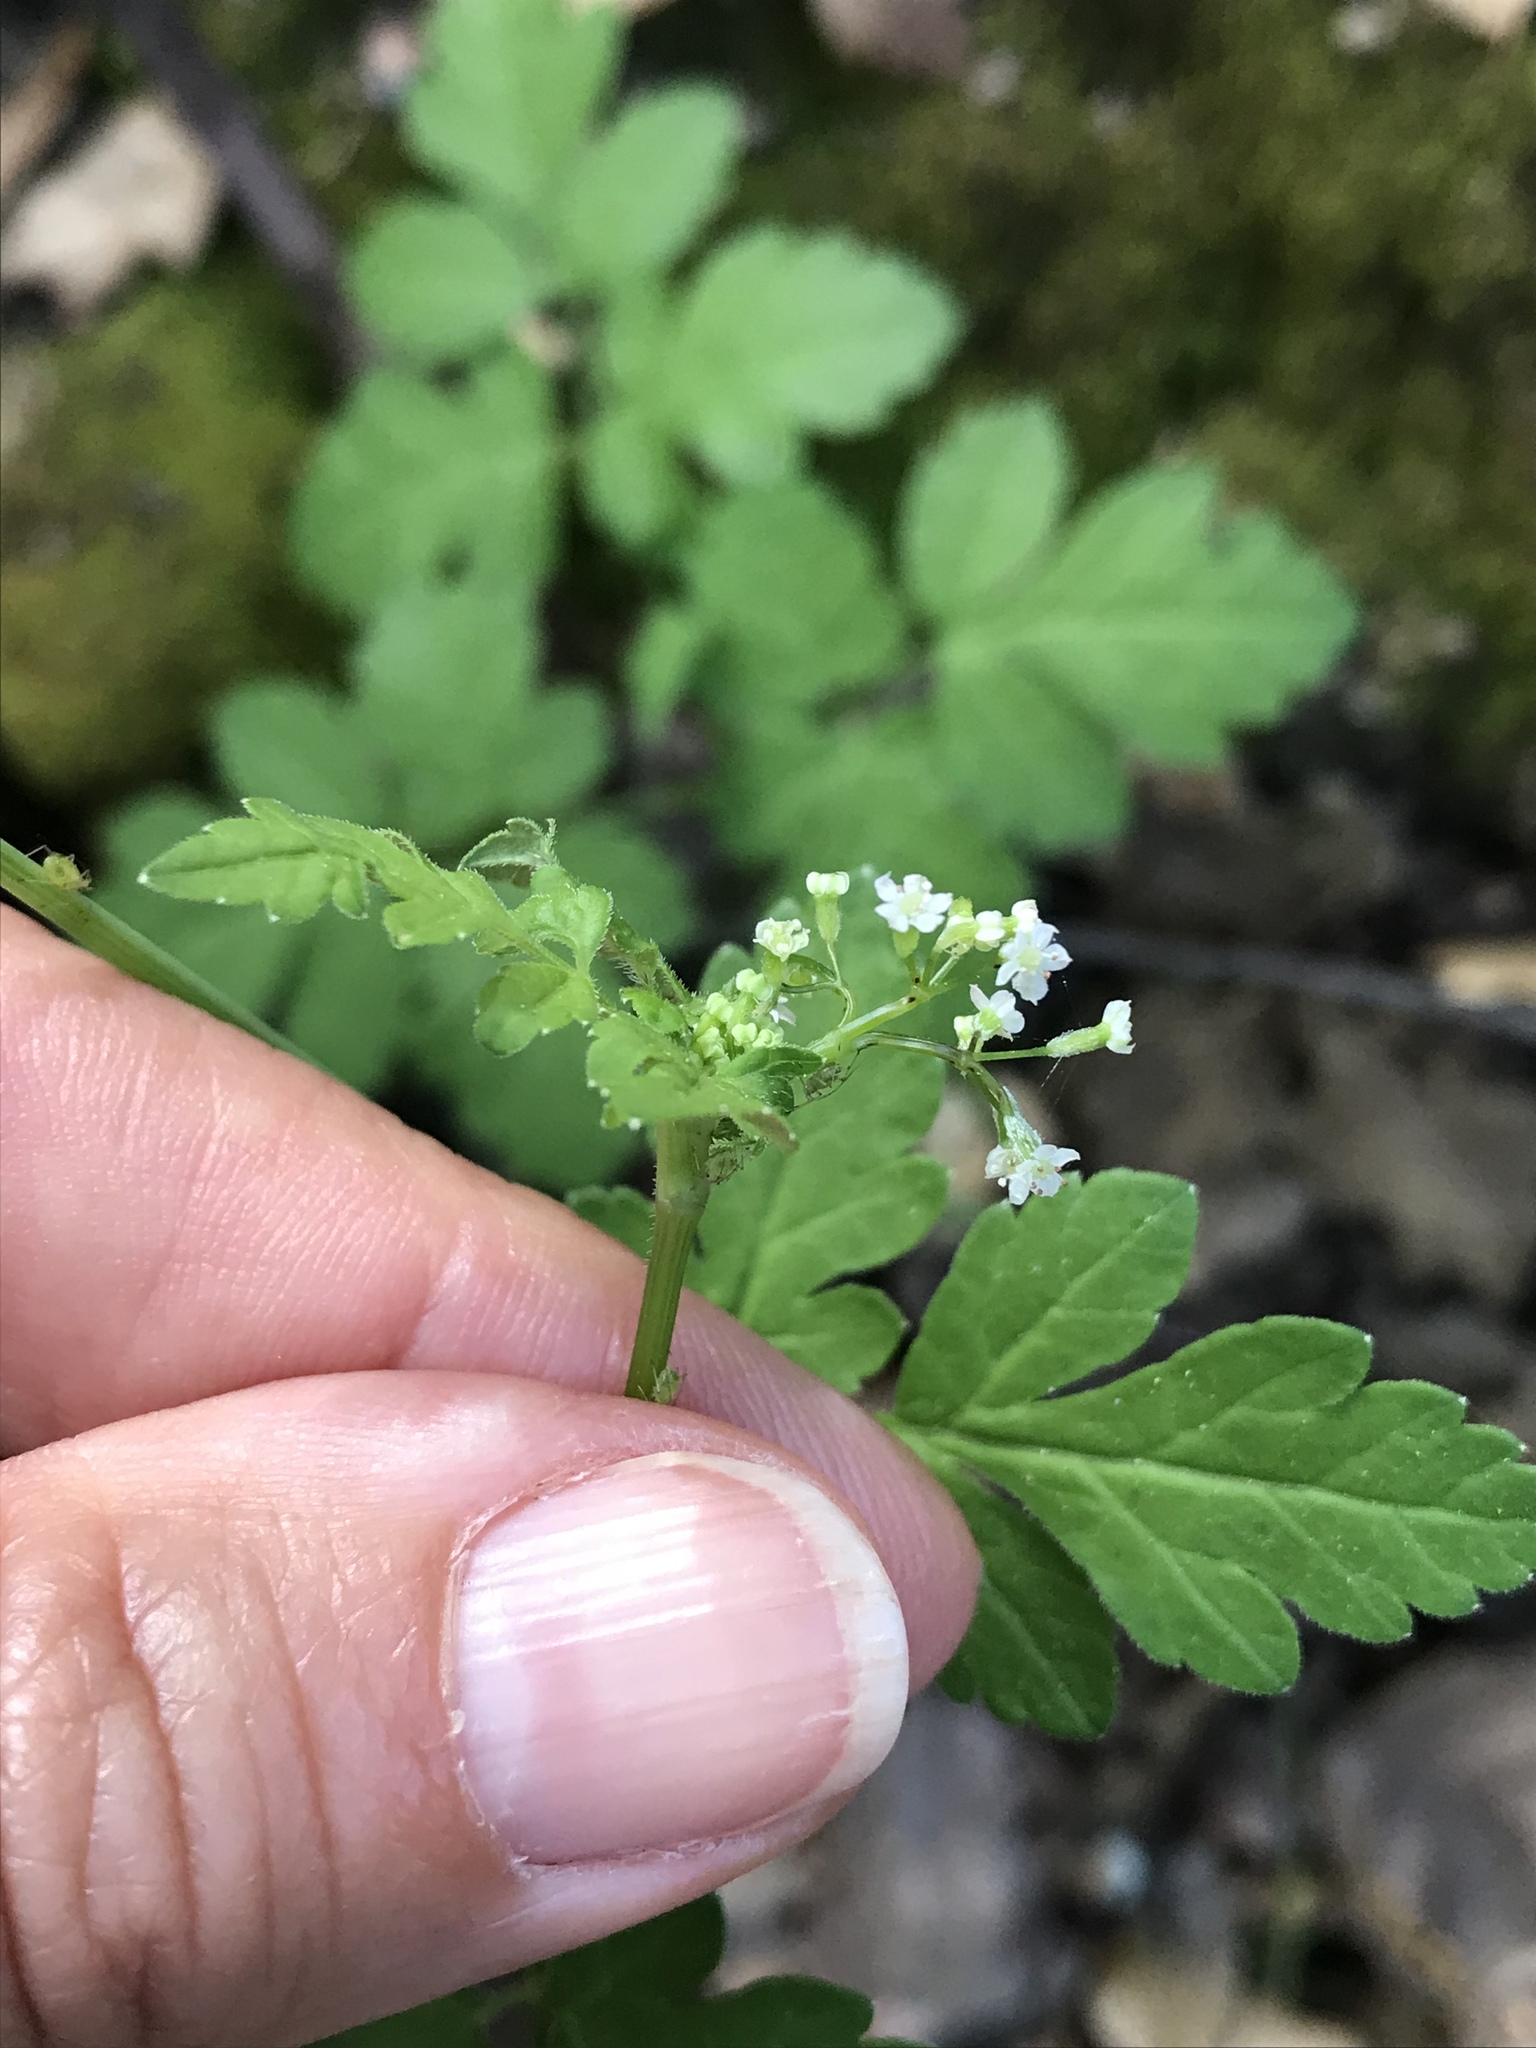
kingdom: Plantae
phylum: Tracheophyta
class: Magnoliopsida
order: Apiales
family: Apiaceae
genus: Osmorhiza
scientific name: Osmorhiza berteroi
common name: Mountain sweet cicely
